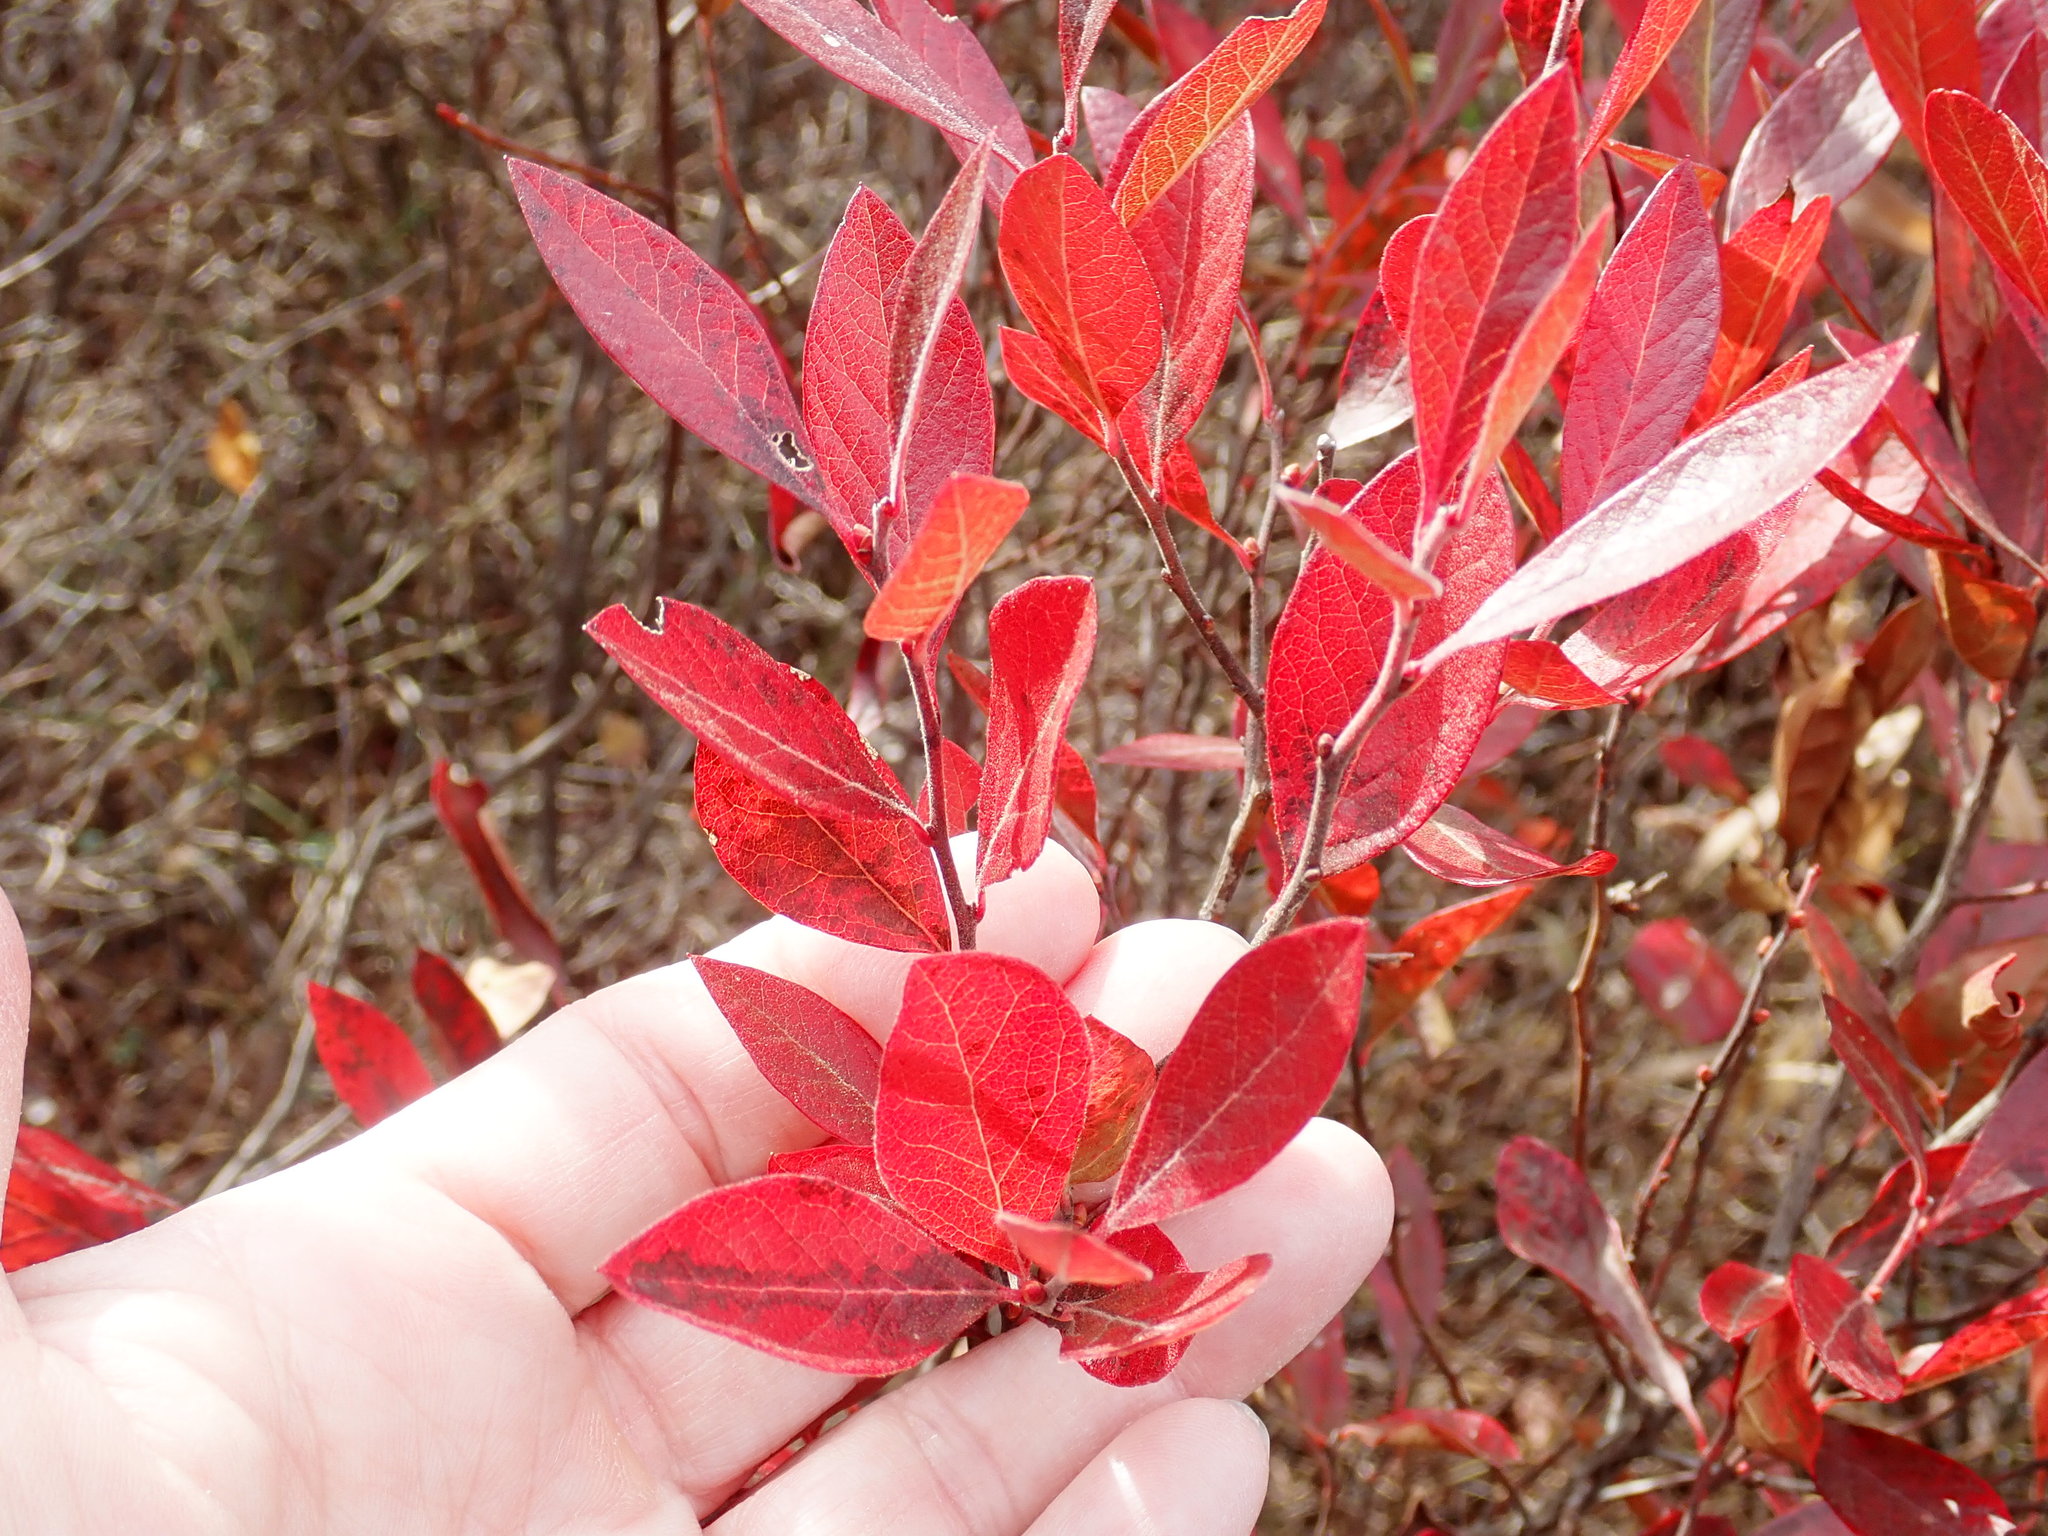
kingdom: Plantae
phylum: Tracheophyta
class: Magnoliopsida
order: Ericales
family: Ericaceae
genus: Gaylussacia
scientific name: Gaylussacia baccata
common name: Black huckleberry
